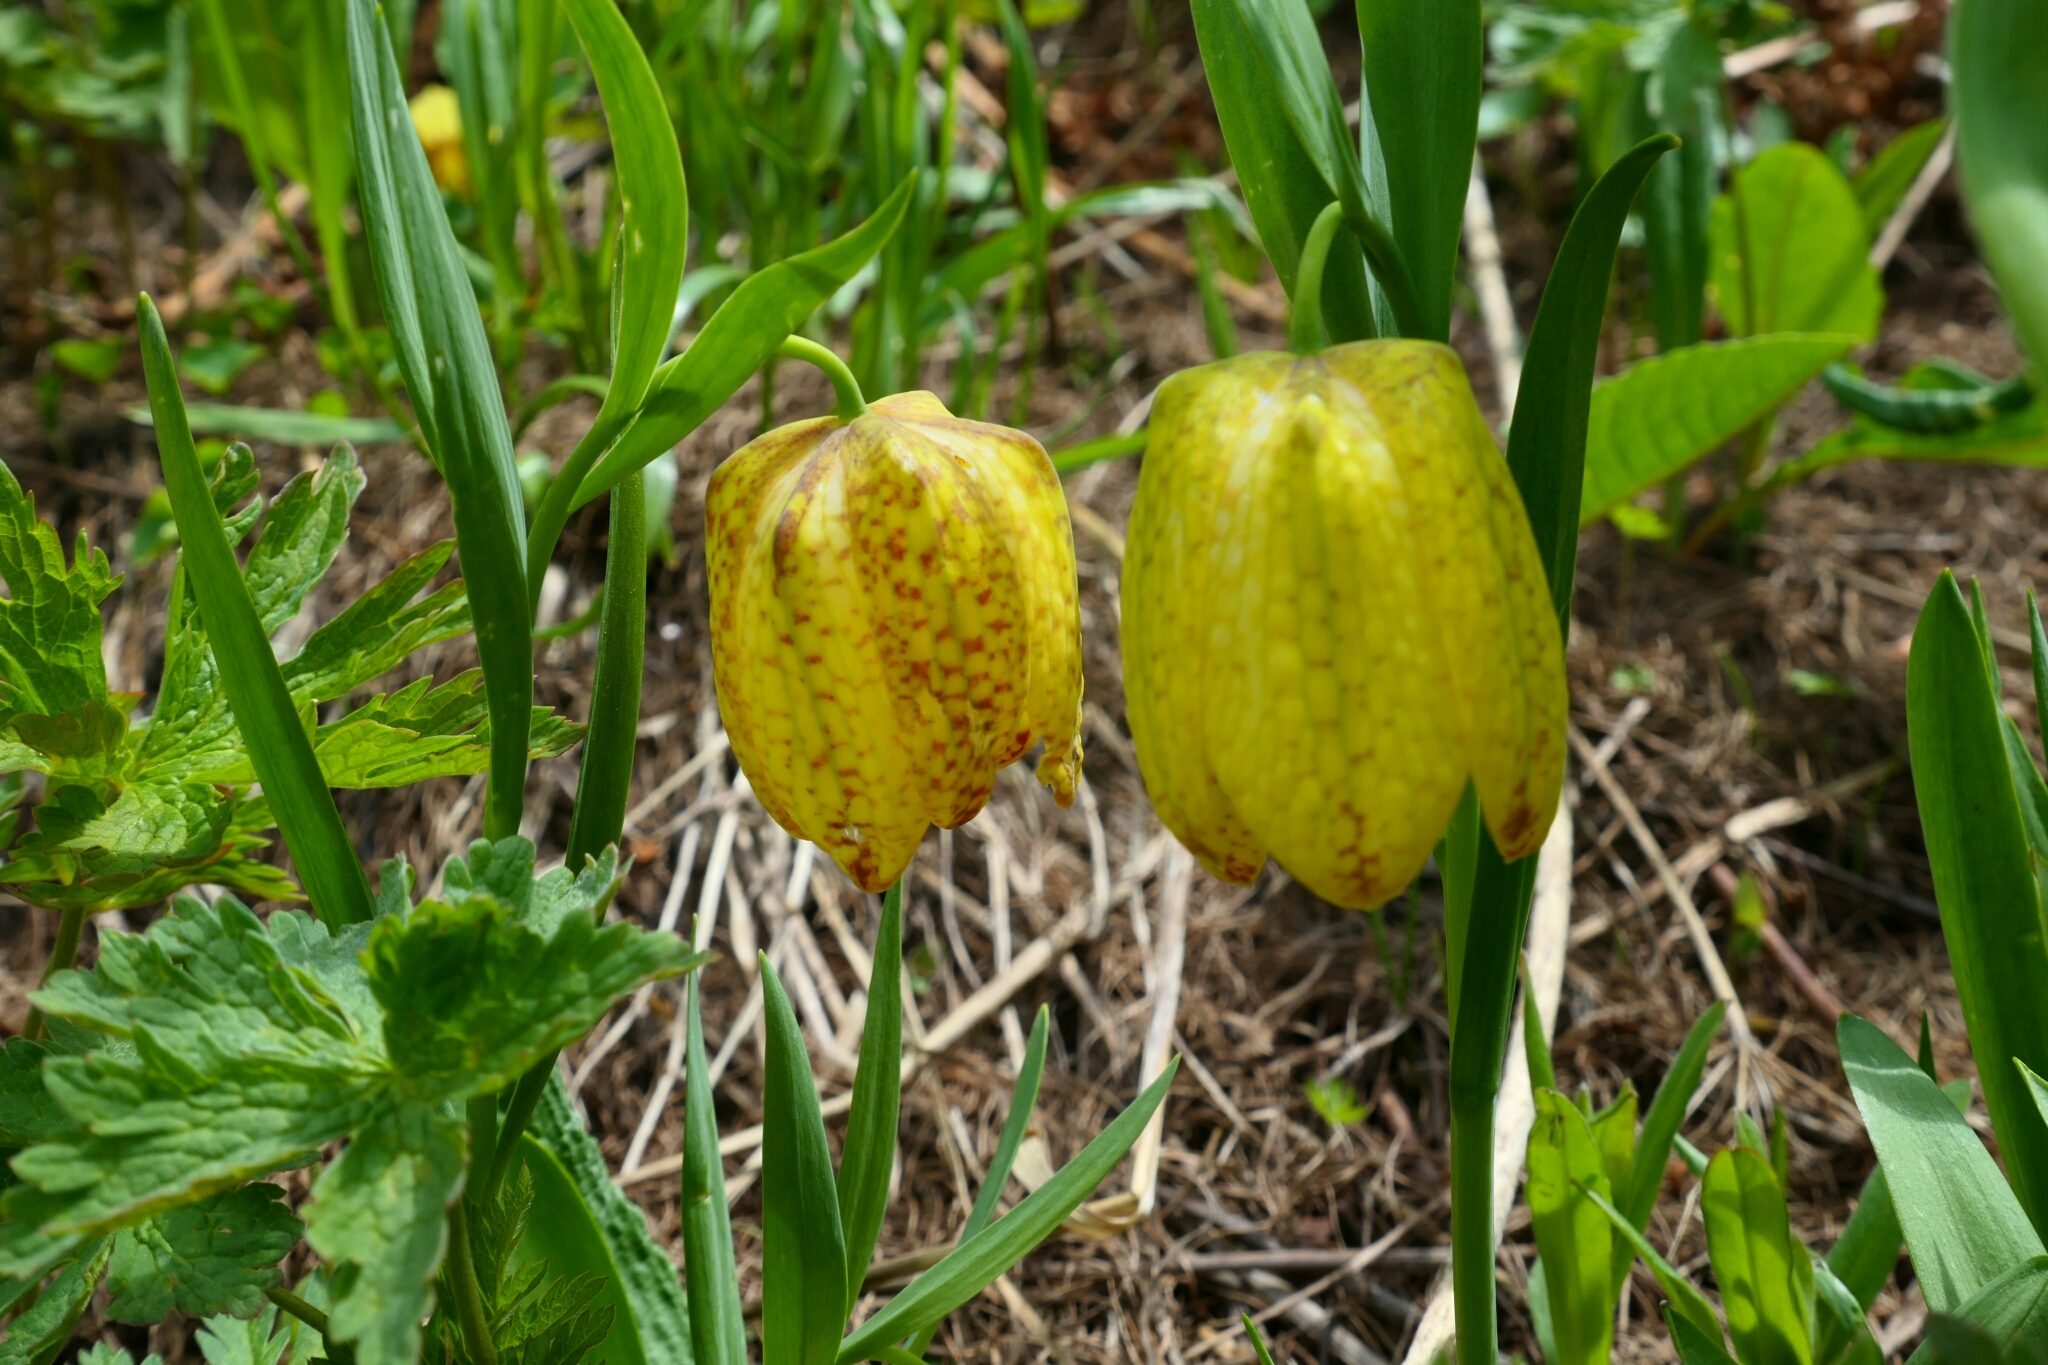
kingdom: Plantae
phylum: Tracheophyta
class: Liliopsida
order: Liliales
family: Liliaceae
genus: Fritillaria
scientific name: Fritillaria tubaeformis
